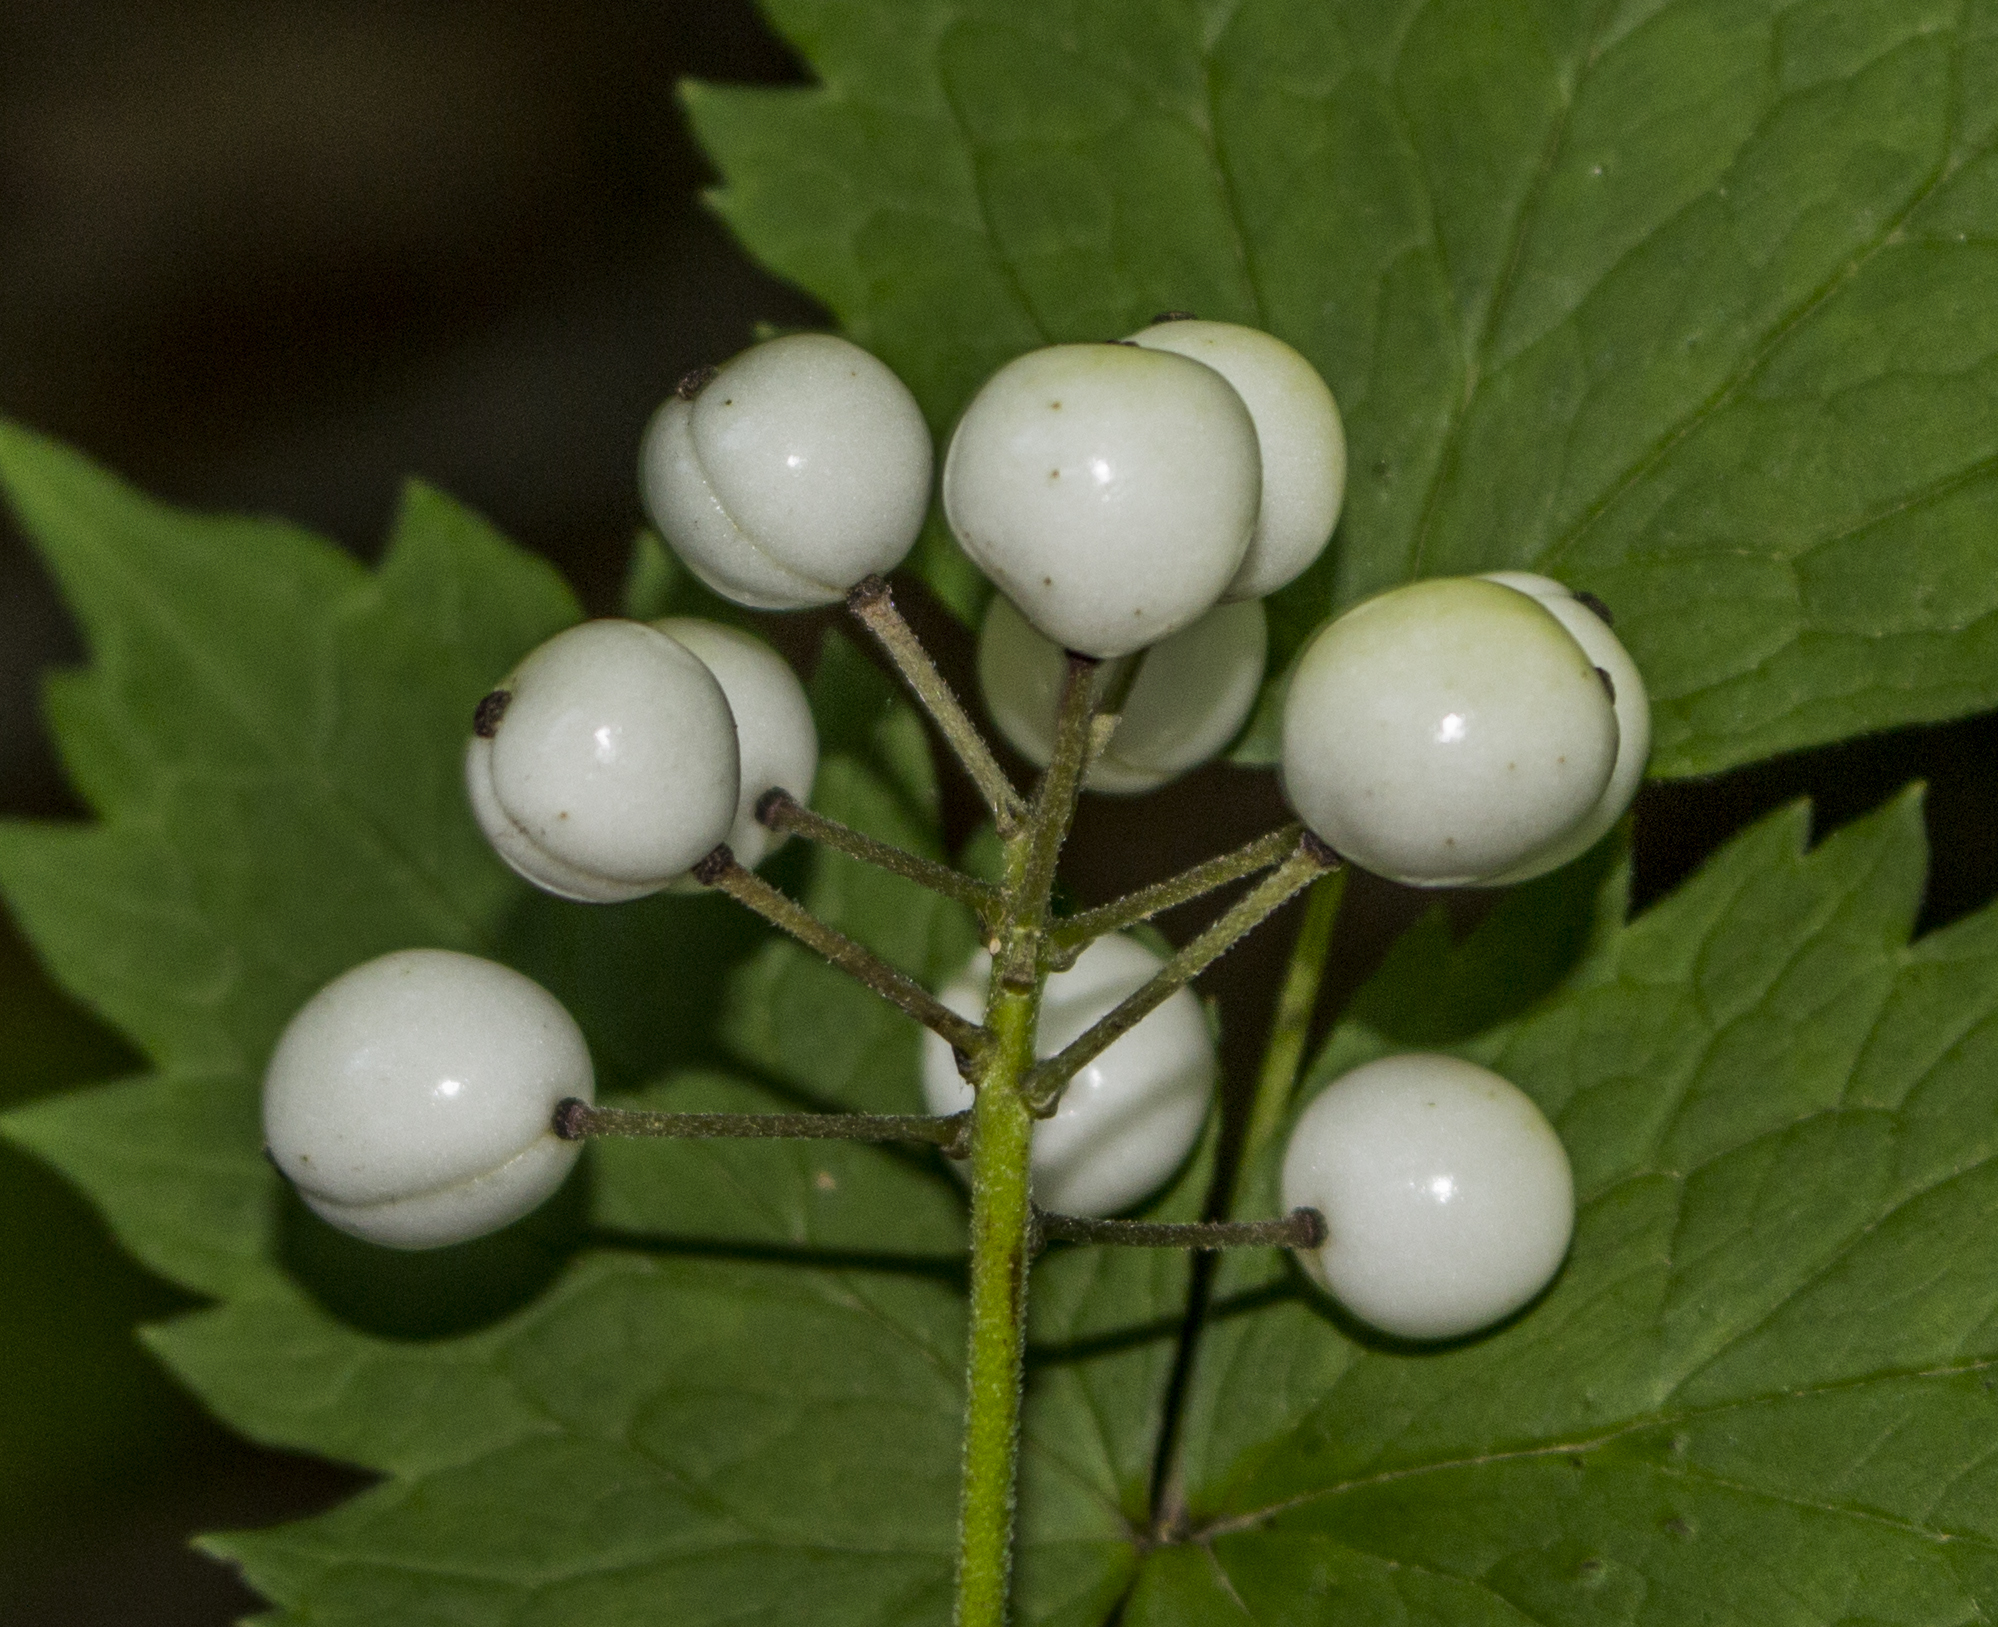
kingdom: Plantae
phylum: Tracheophyta
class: Magnoliopsida
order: Ranunculales
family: Ranunculaceae
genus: Actaea
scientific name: Actaea rubra
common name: Red baneberry
